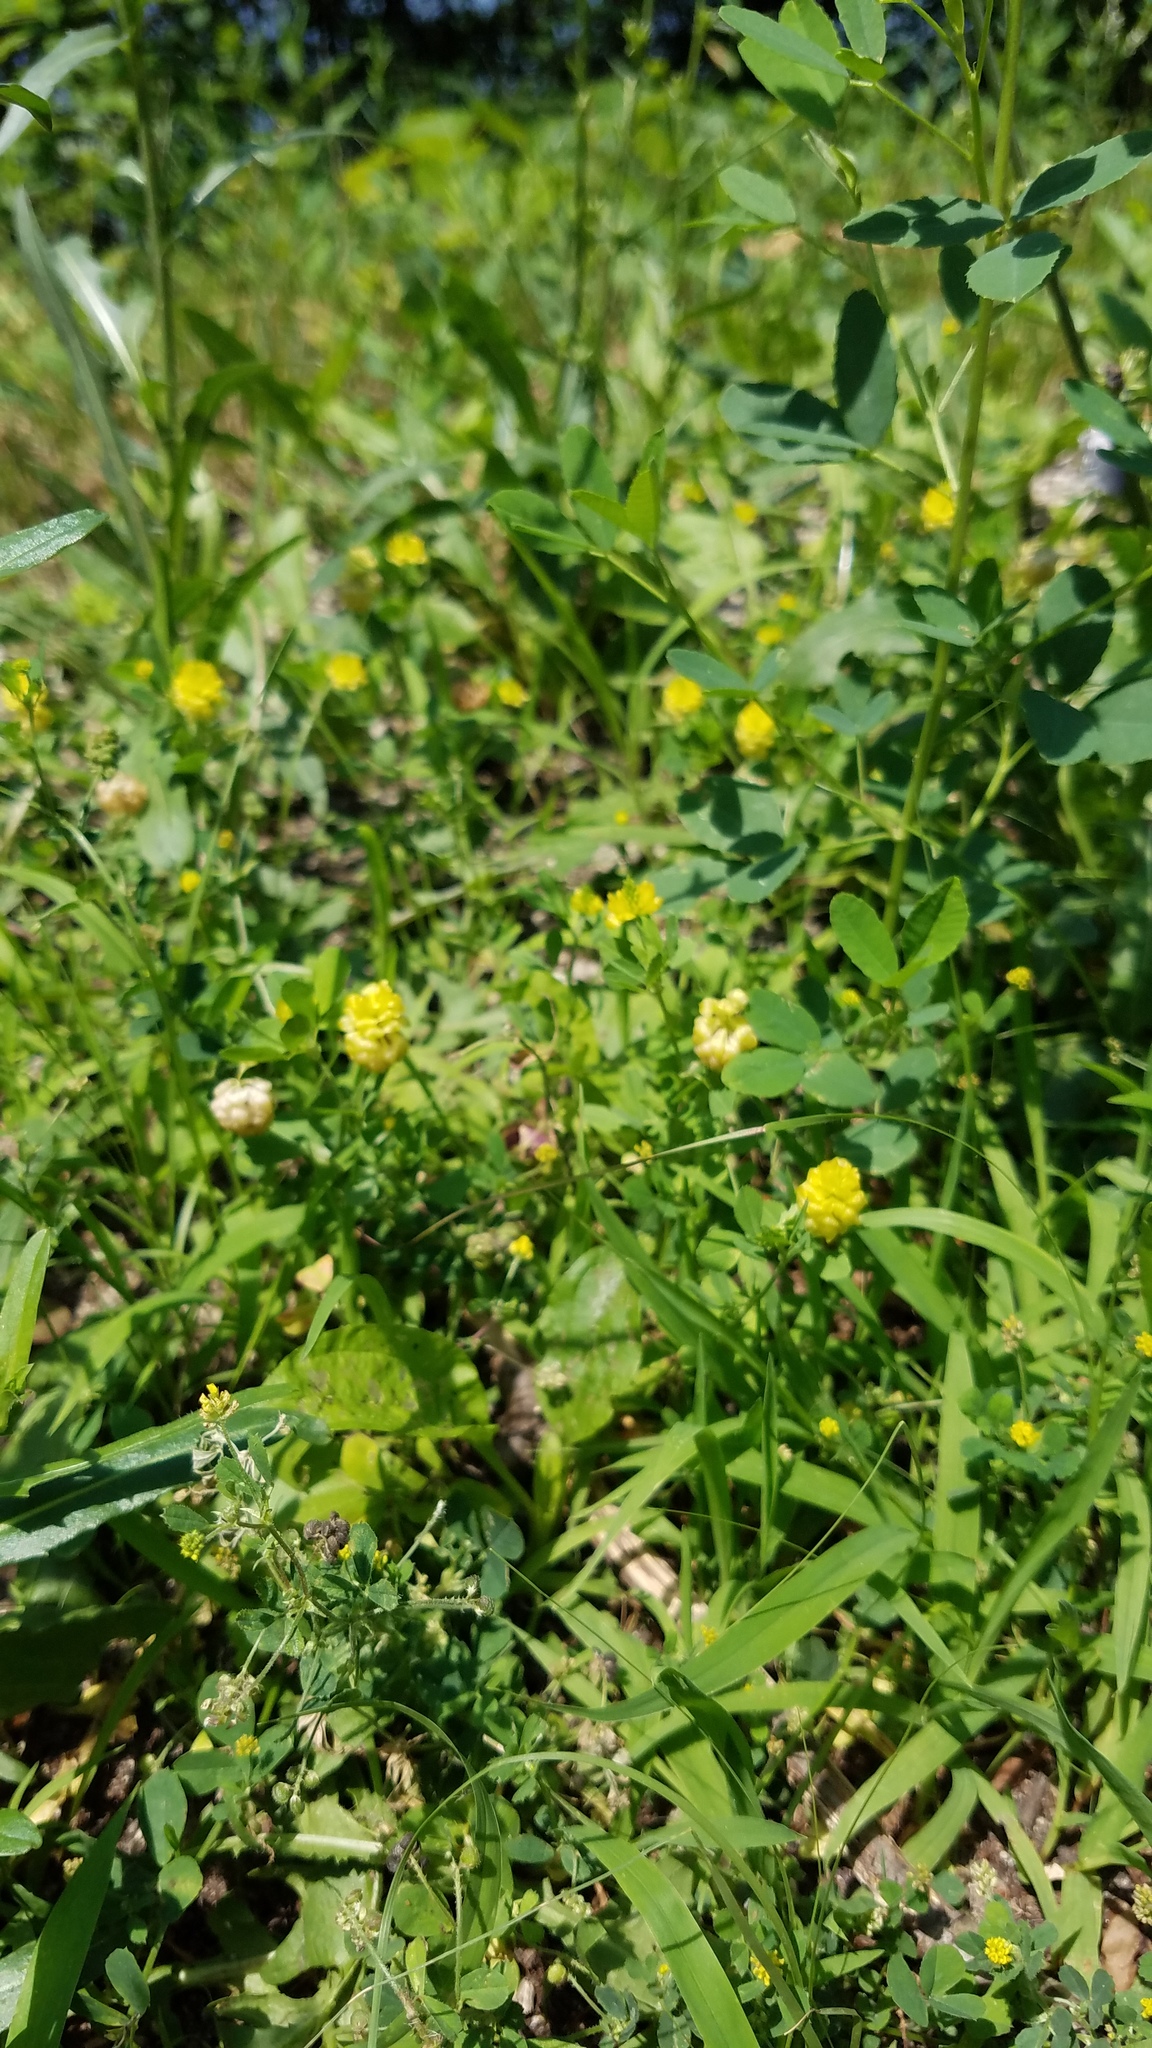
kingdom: Plantae
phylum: Tracheophyta
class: Magnoliopsida
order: Fabales
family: Fabaceae
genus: Trifolium
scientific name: Trifolium campestre
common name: Field clover
